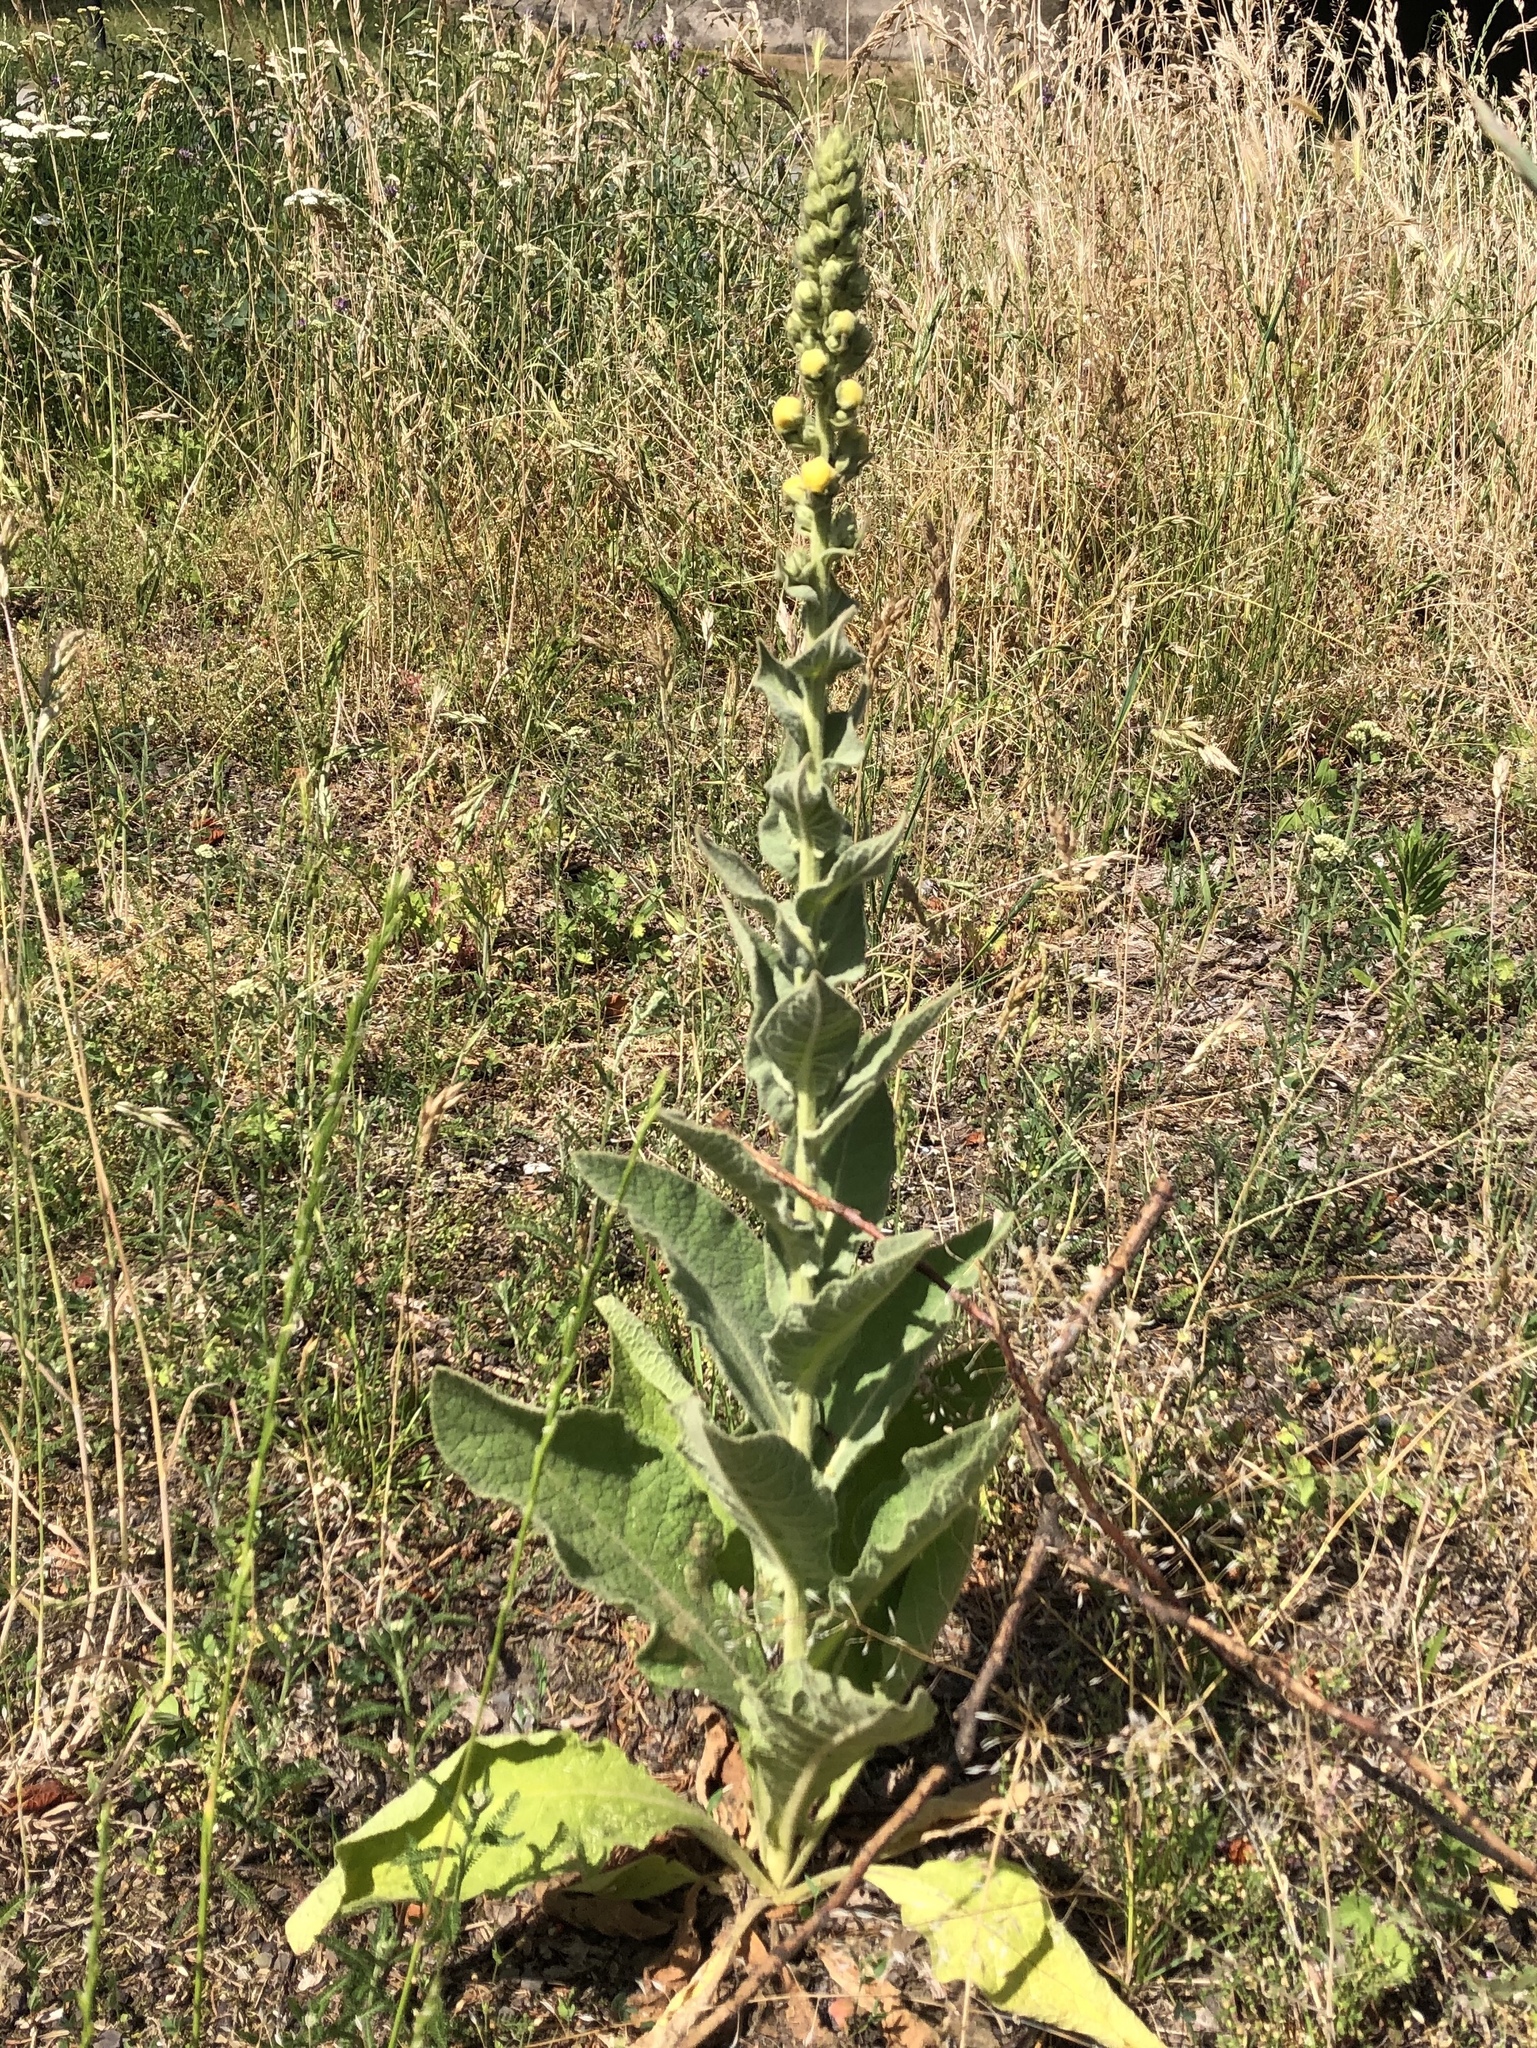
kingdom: Plantae
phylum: Tracheophyta
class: Magnoliopsida
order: Lamiales
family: Scrophulariaceae
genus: Verbascum
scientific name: Verbascum phlomoides
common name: Orange mullein
